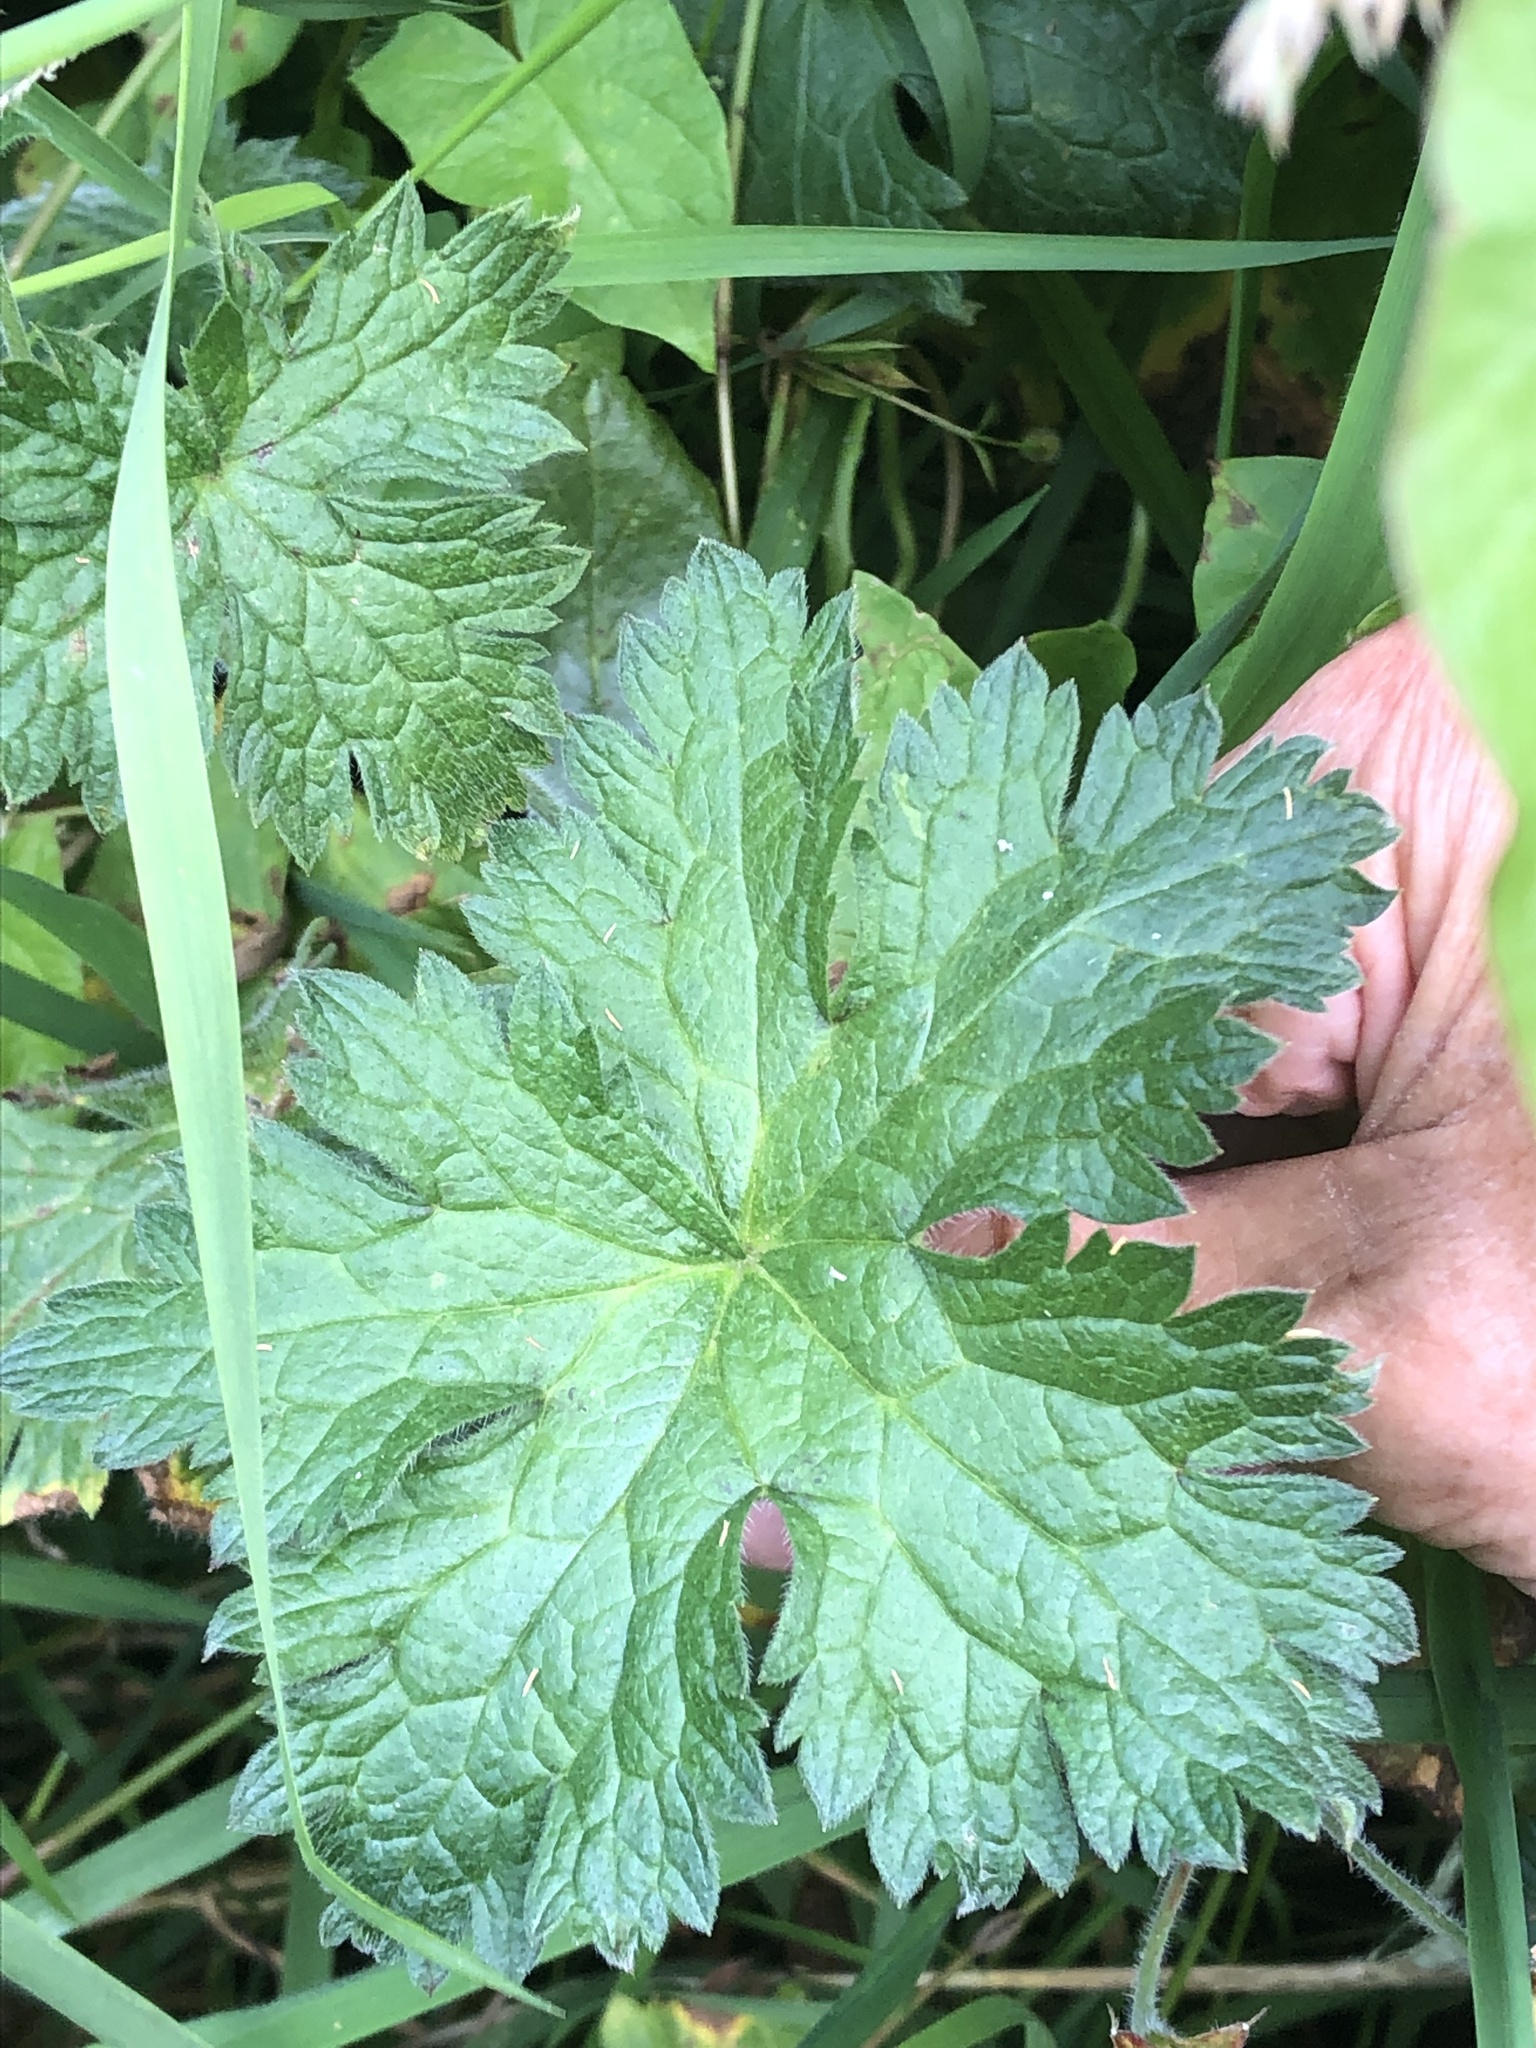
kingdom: Plantae
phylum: Tracheophyta
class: Magnoliopsida
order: Geraniales
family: Geraniaceae
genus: Geranium
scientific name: Geranium oxonianum
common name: Druce's crane's-bill
